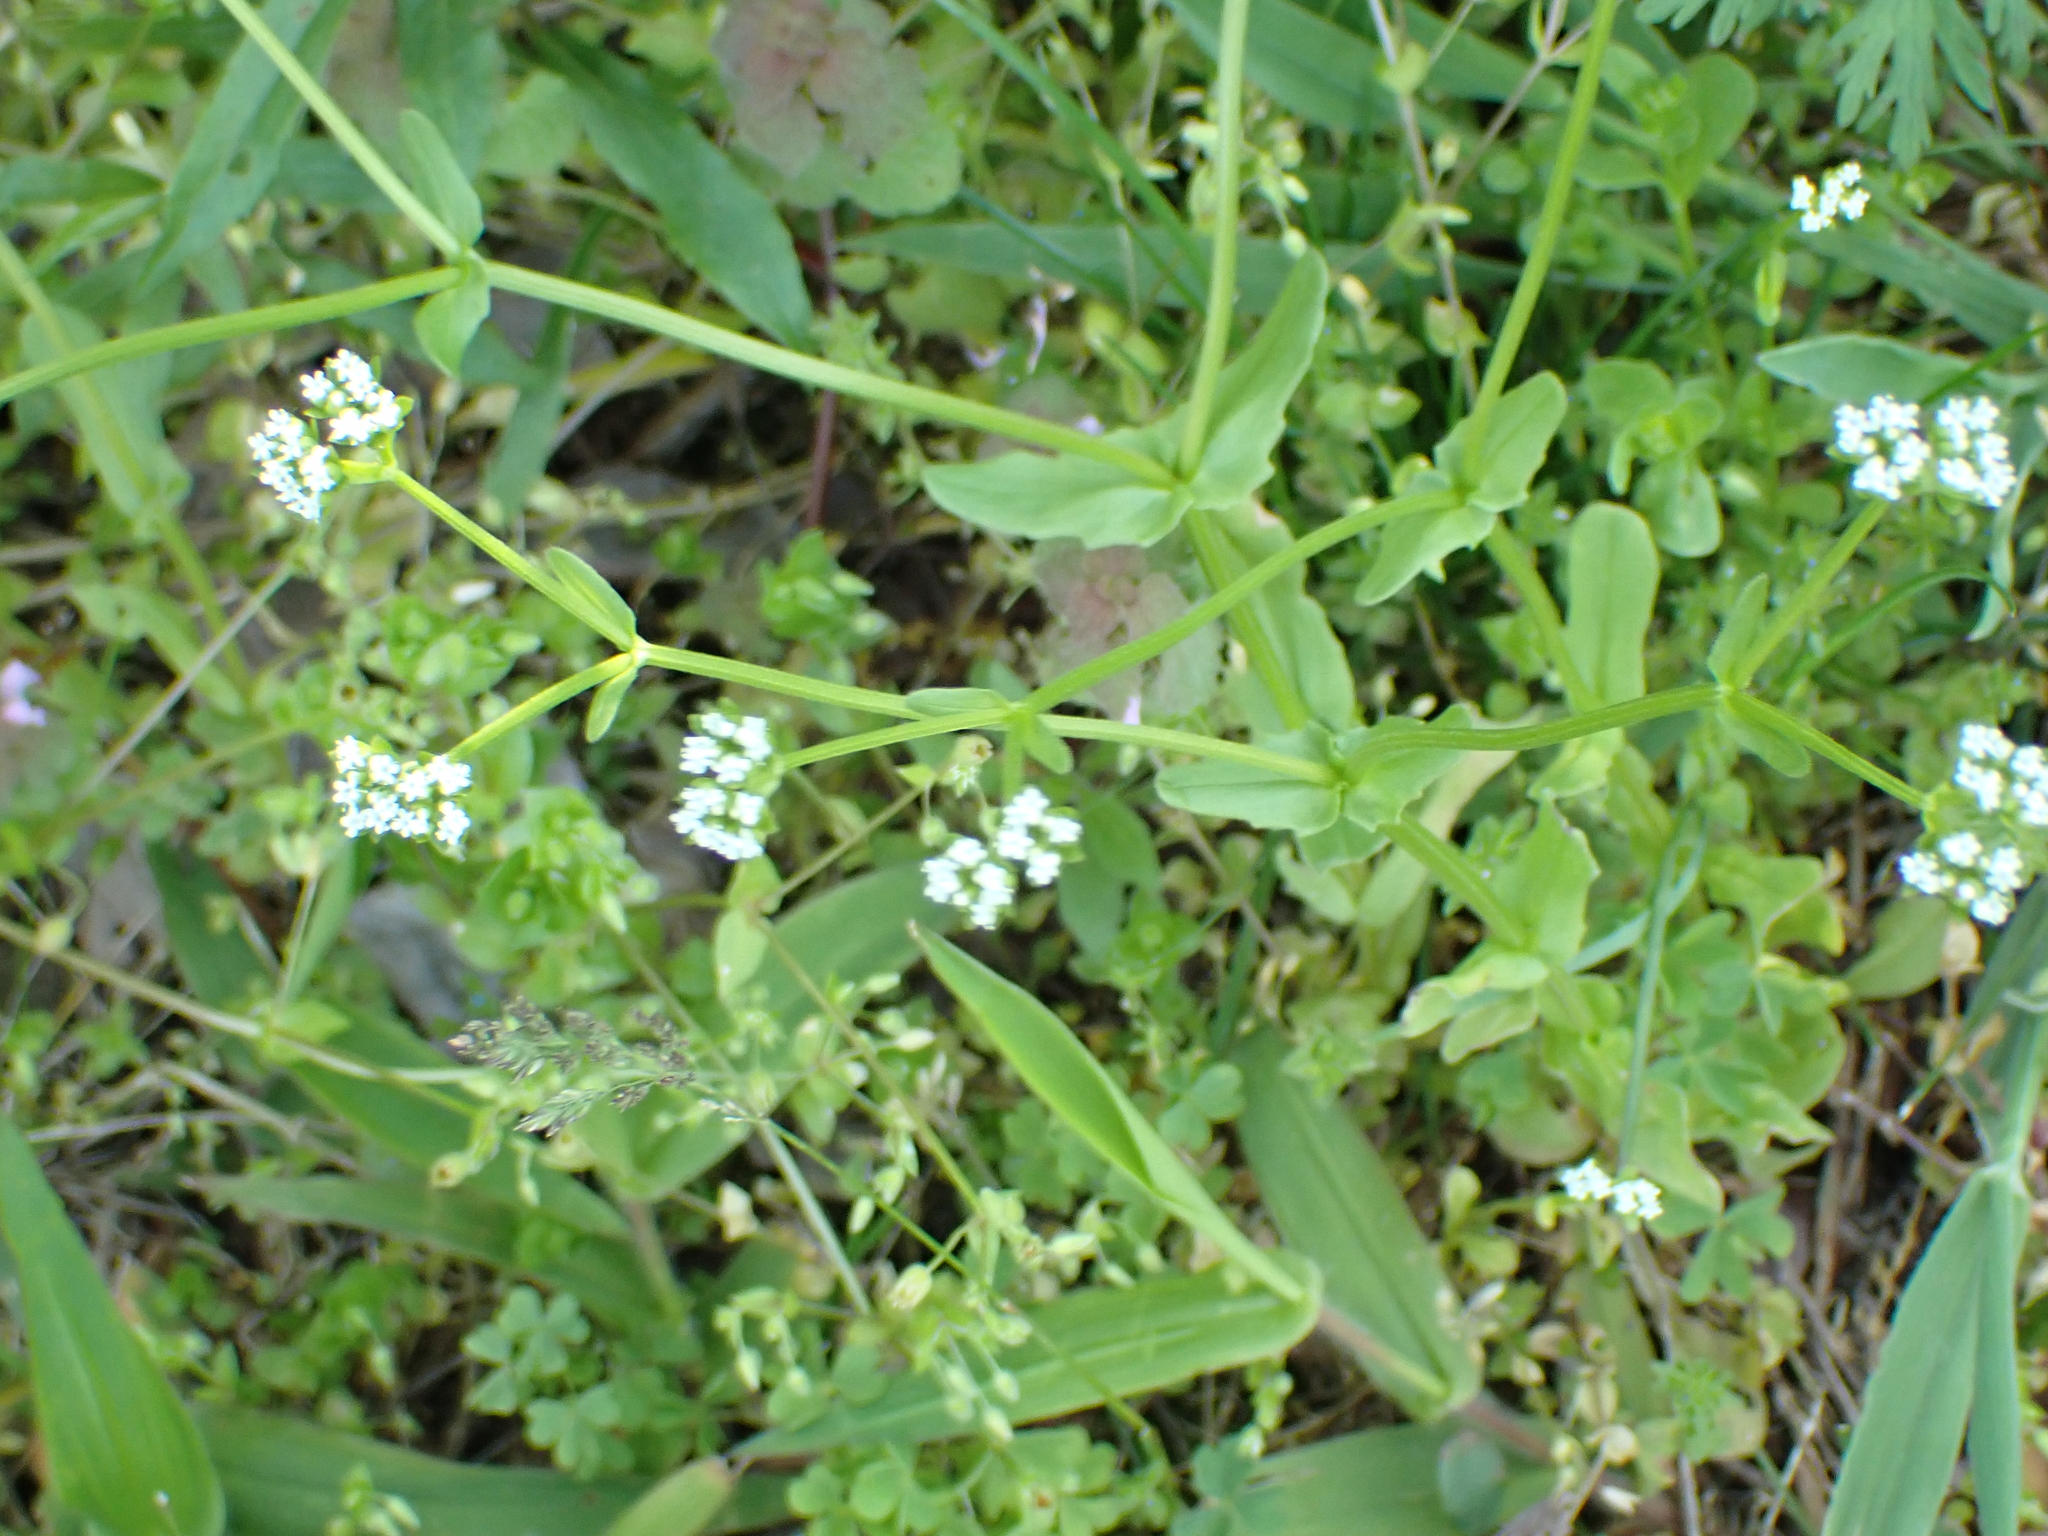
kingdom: Plantae
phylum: Tracheophyta
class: Magnoliopsida
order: Dipsacales
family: Caprifoliaceae
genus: Valerianella
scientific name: Valerianella locusta
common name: Common cornsalad
